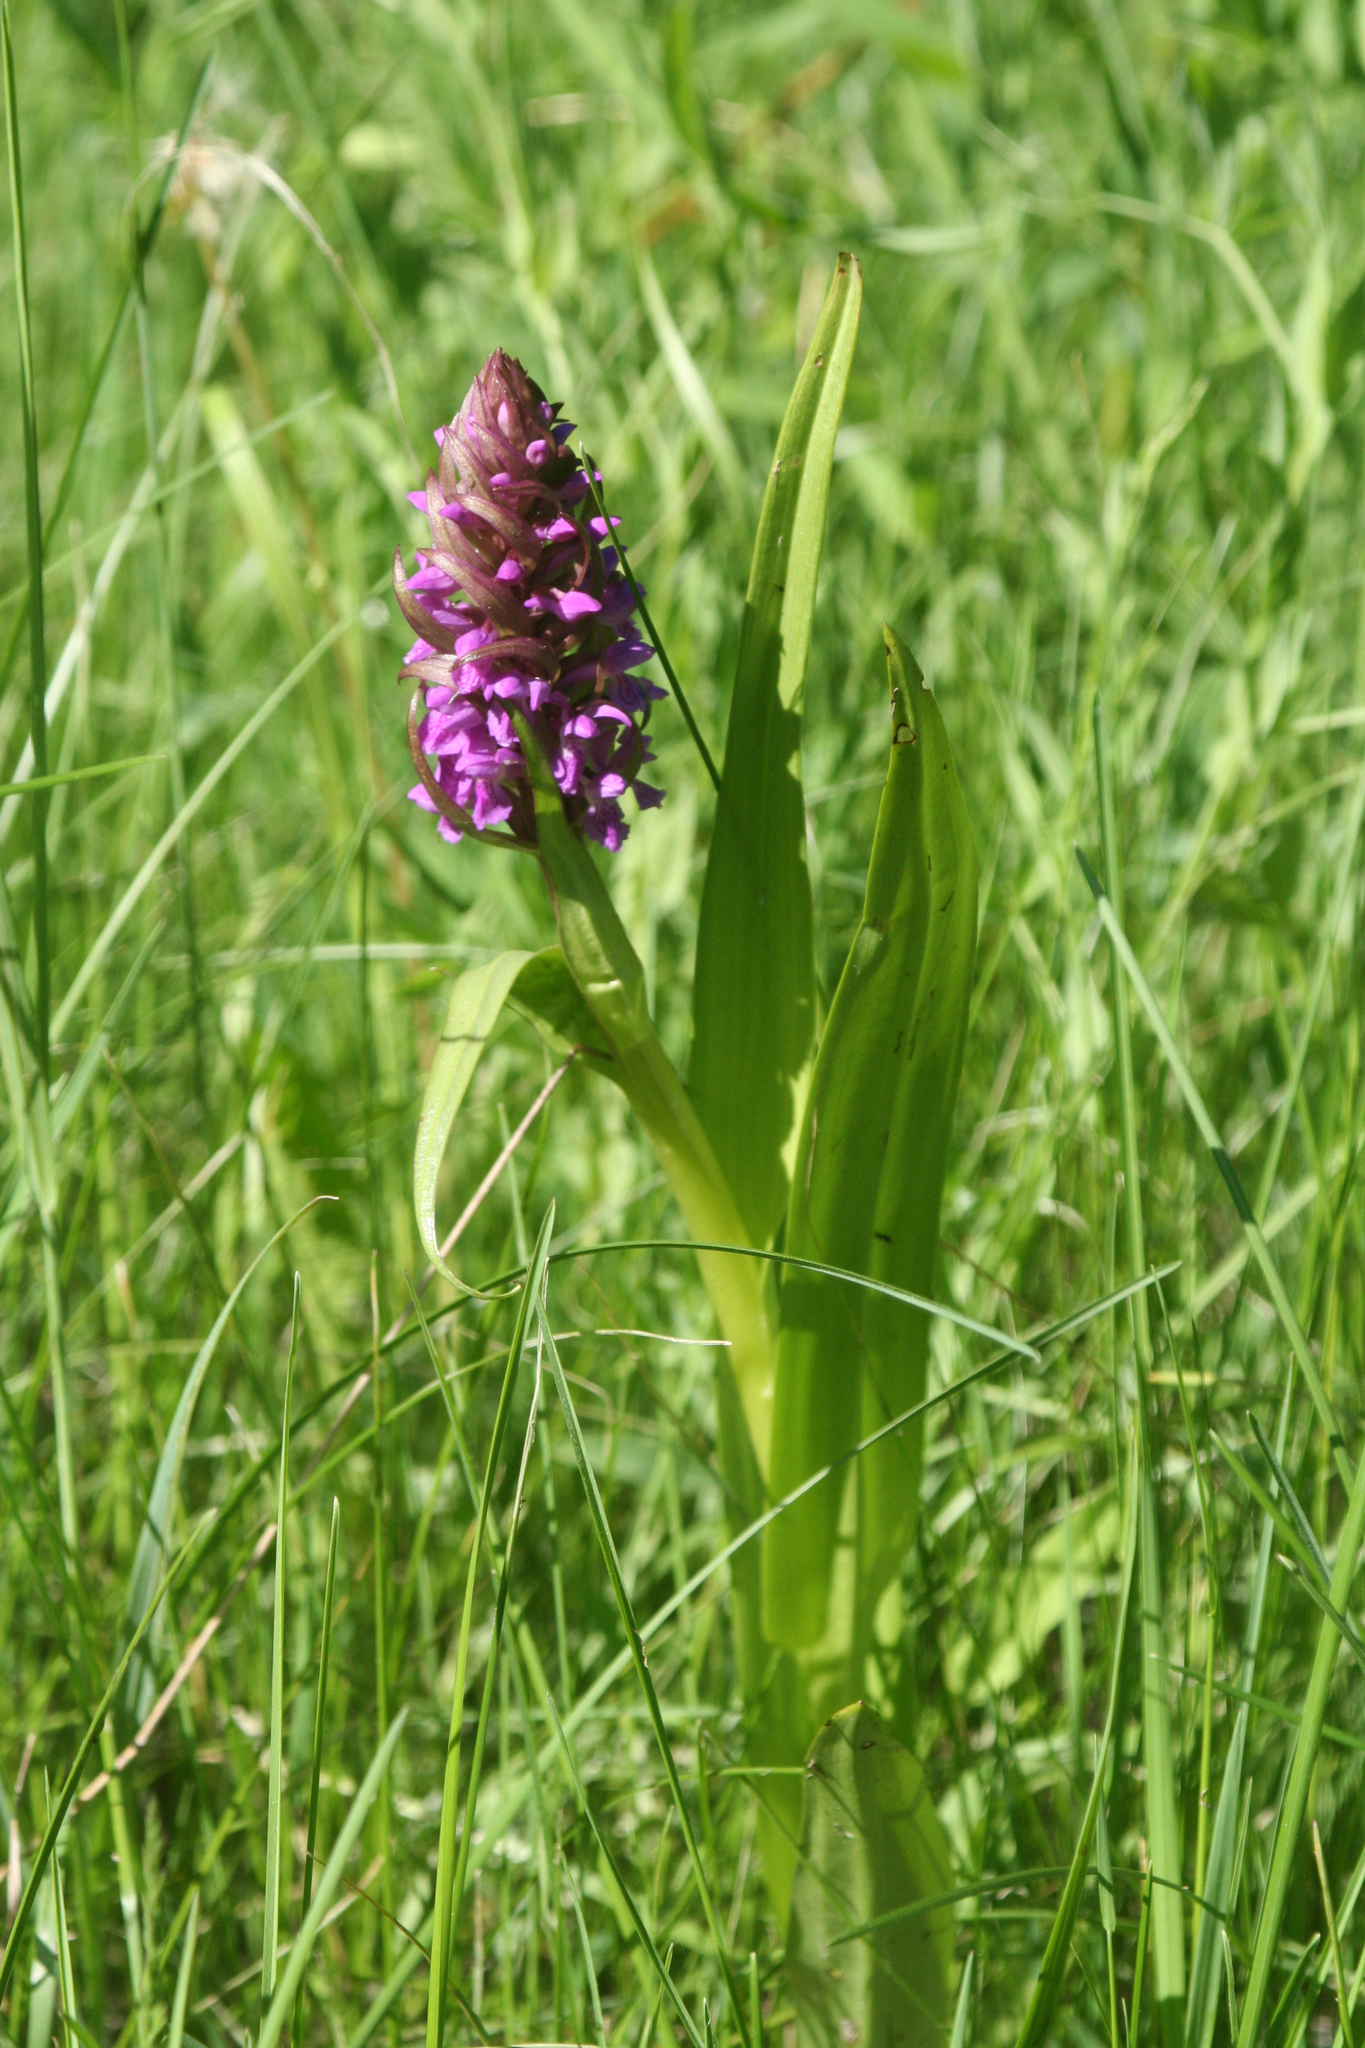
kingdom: Plantae
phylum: Tracheophyta
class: Liliopsida
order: Asparagales
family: Orchidaceae
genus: Dactylorhiza
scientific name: Dactylorhiza incarnata
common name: Early marsh-orchid
